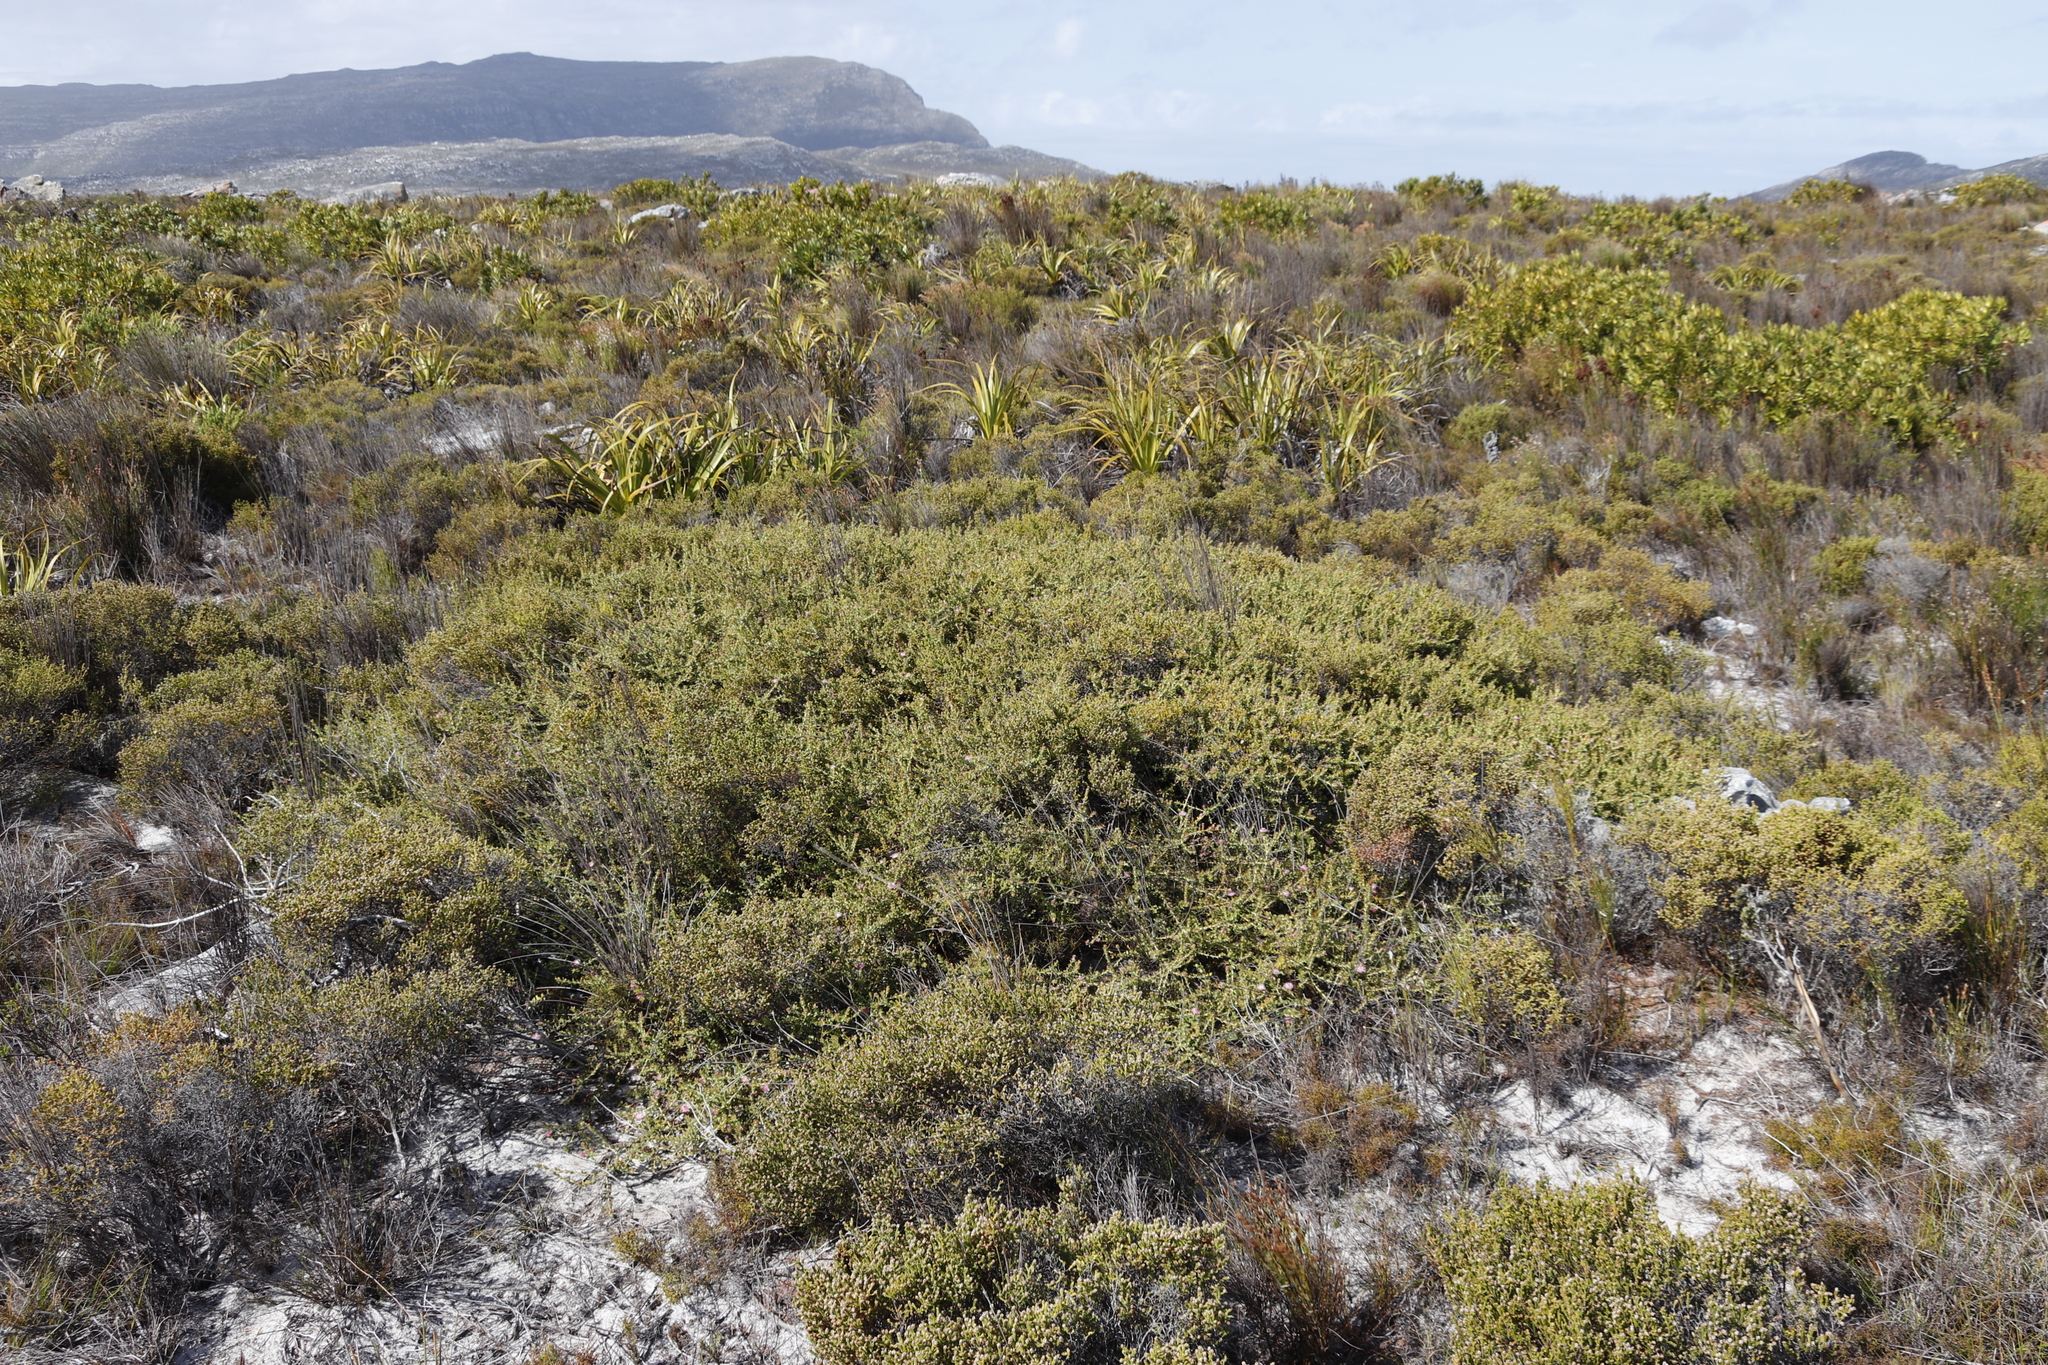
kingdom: Plantae
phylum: Tracheophyta
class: Magnoliopsida
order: Proteales
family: Proteaceae
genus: Diastella
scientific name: Diastella divaricata
